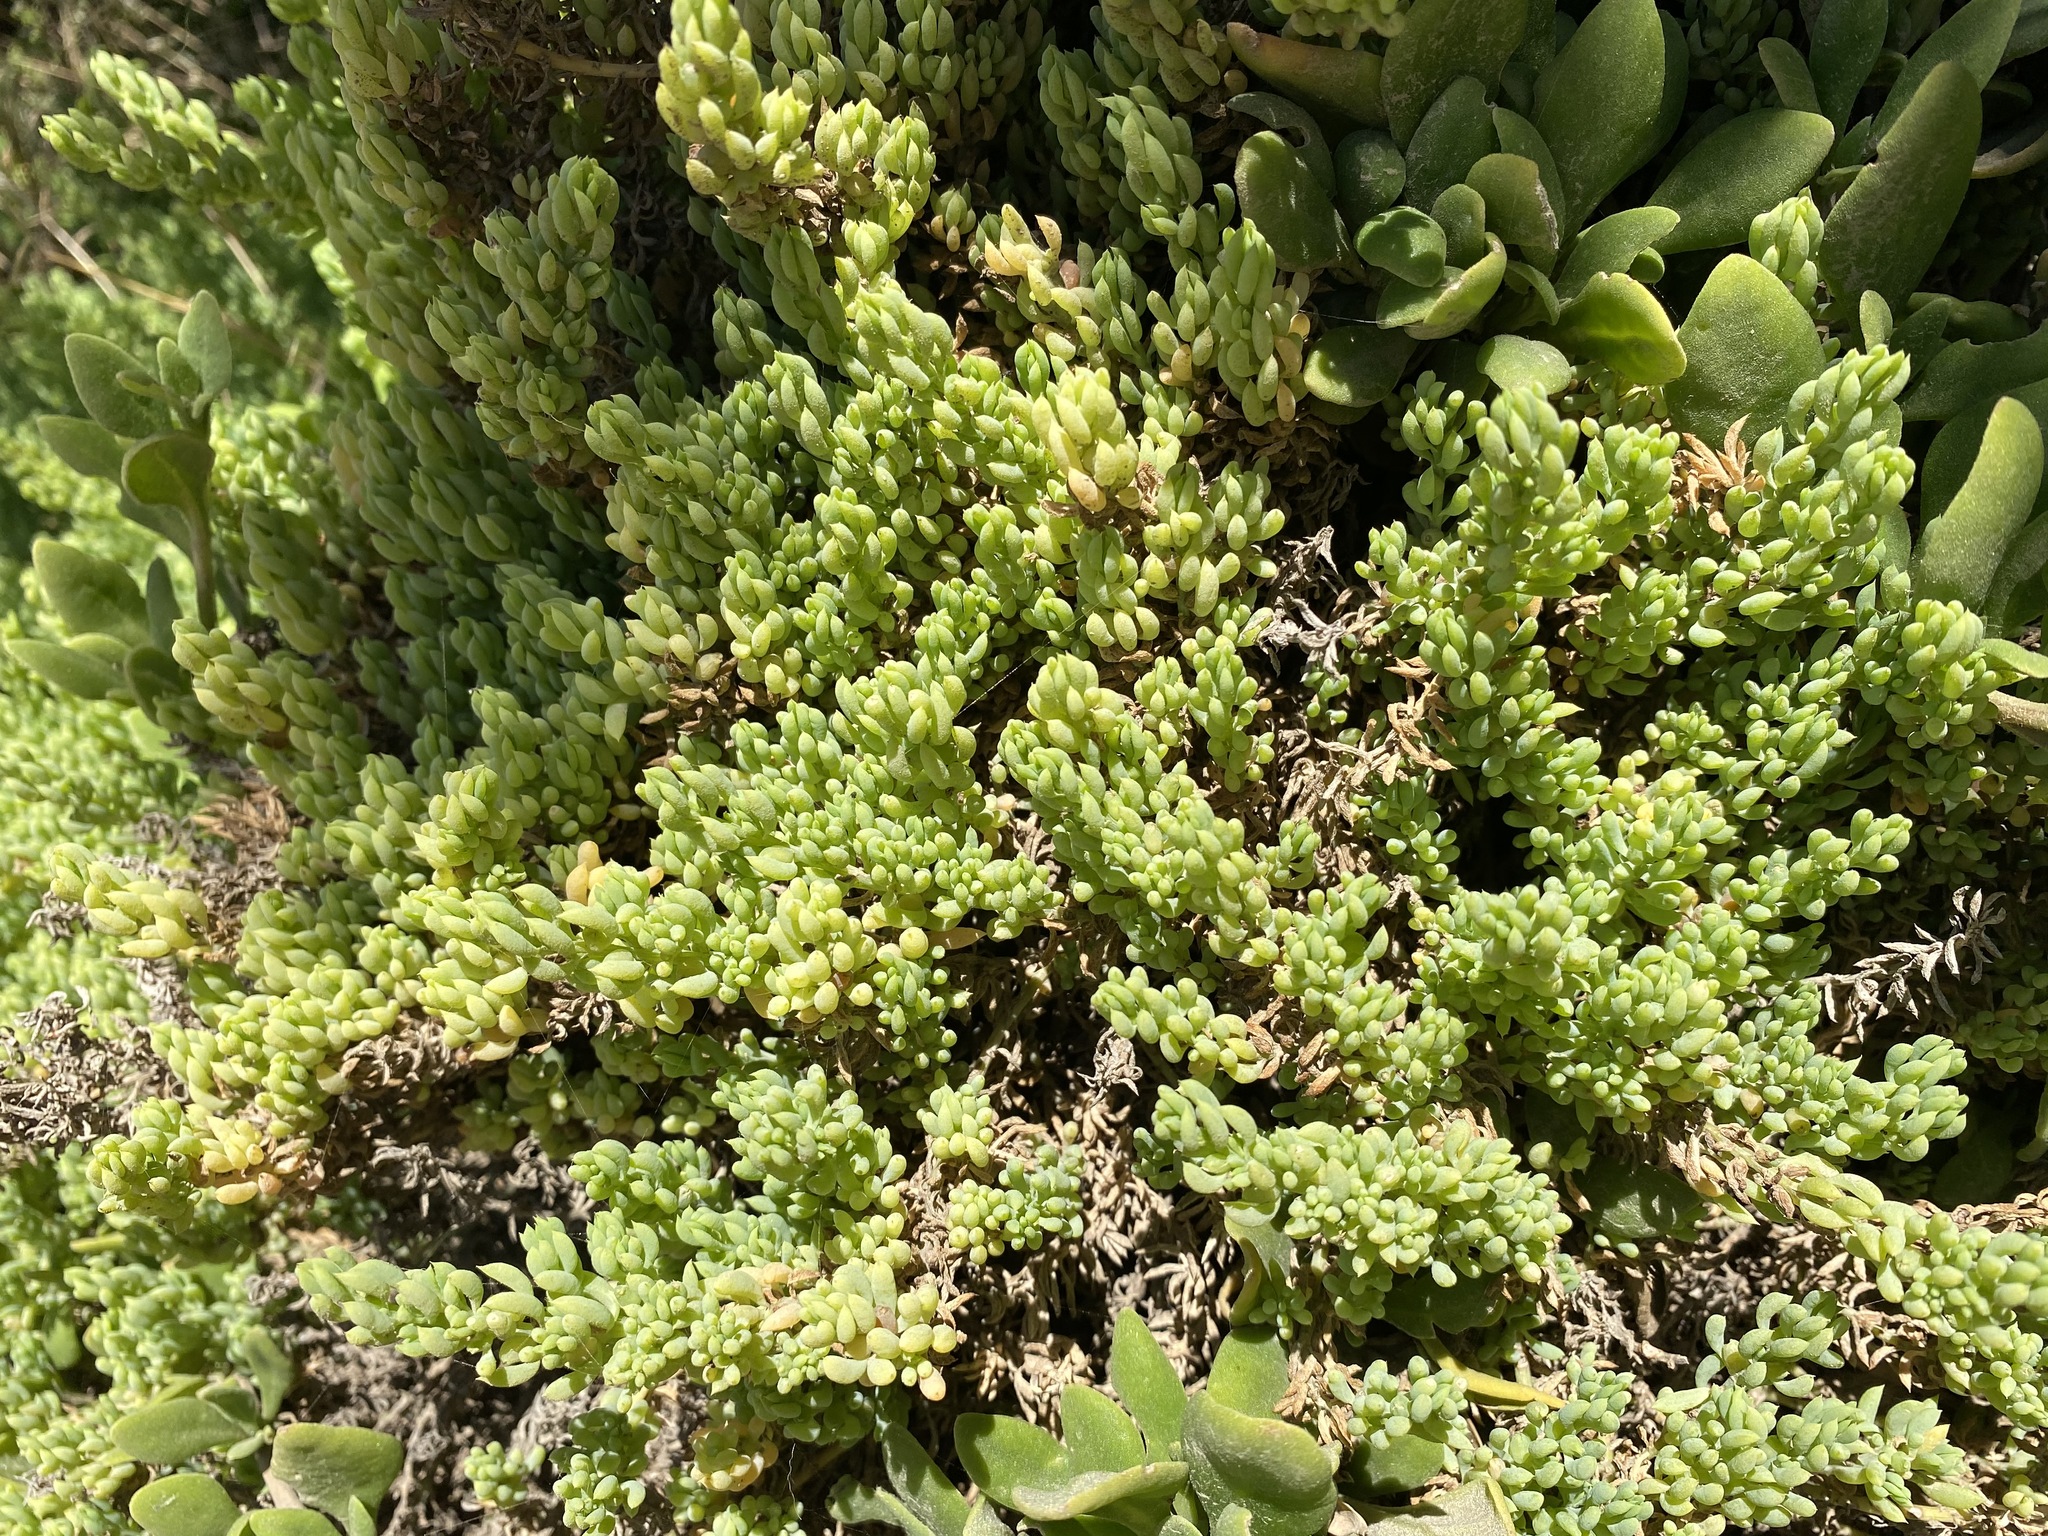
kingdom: Plantae
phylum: Tracheophyta
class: Magnoliopsida
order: Caryophyllales
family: Amaranthaceae
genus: Threlkeldia
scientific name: Threlkeldia diffusa
